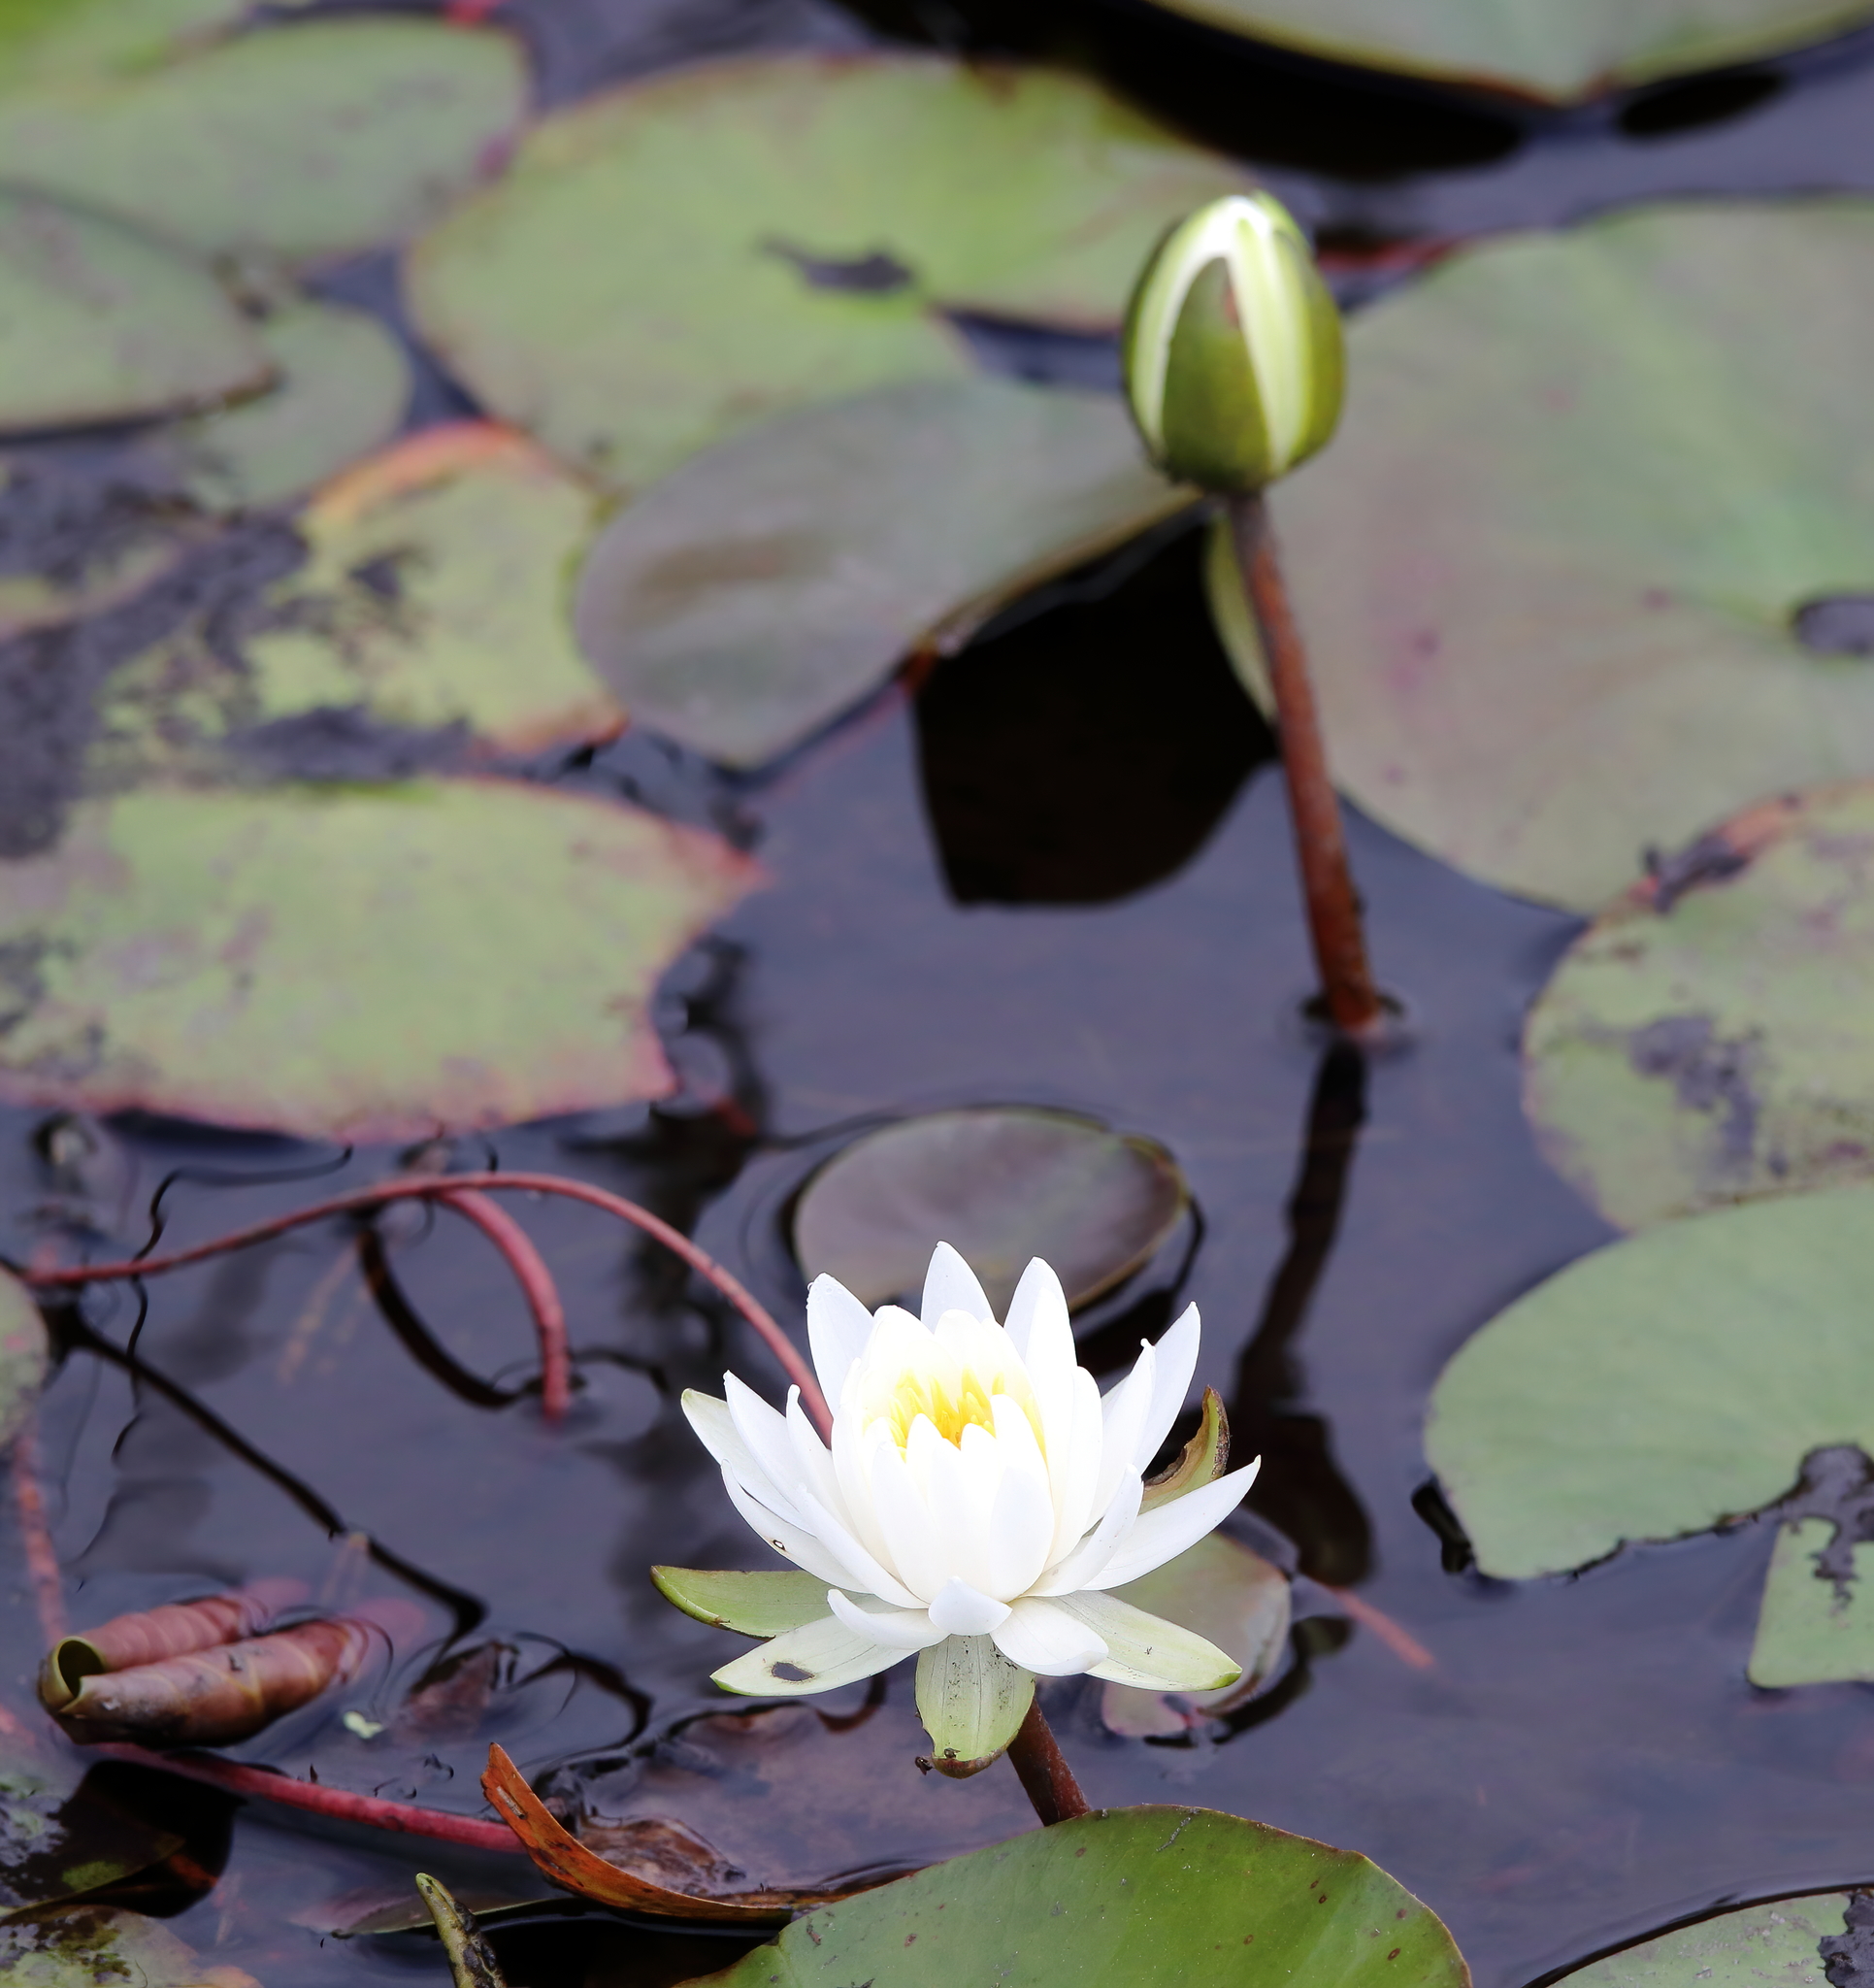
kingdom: Plantae
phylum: Tracheophyta
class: Magnoliopsida
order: Nymphaeales
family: Nymphaeaceae
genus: Nymphaea
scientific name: Nymphaea odorata
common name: Fragrant water-lily
